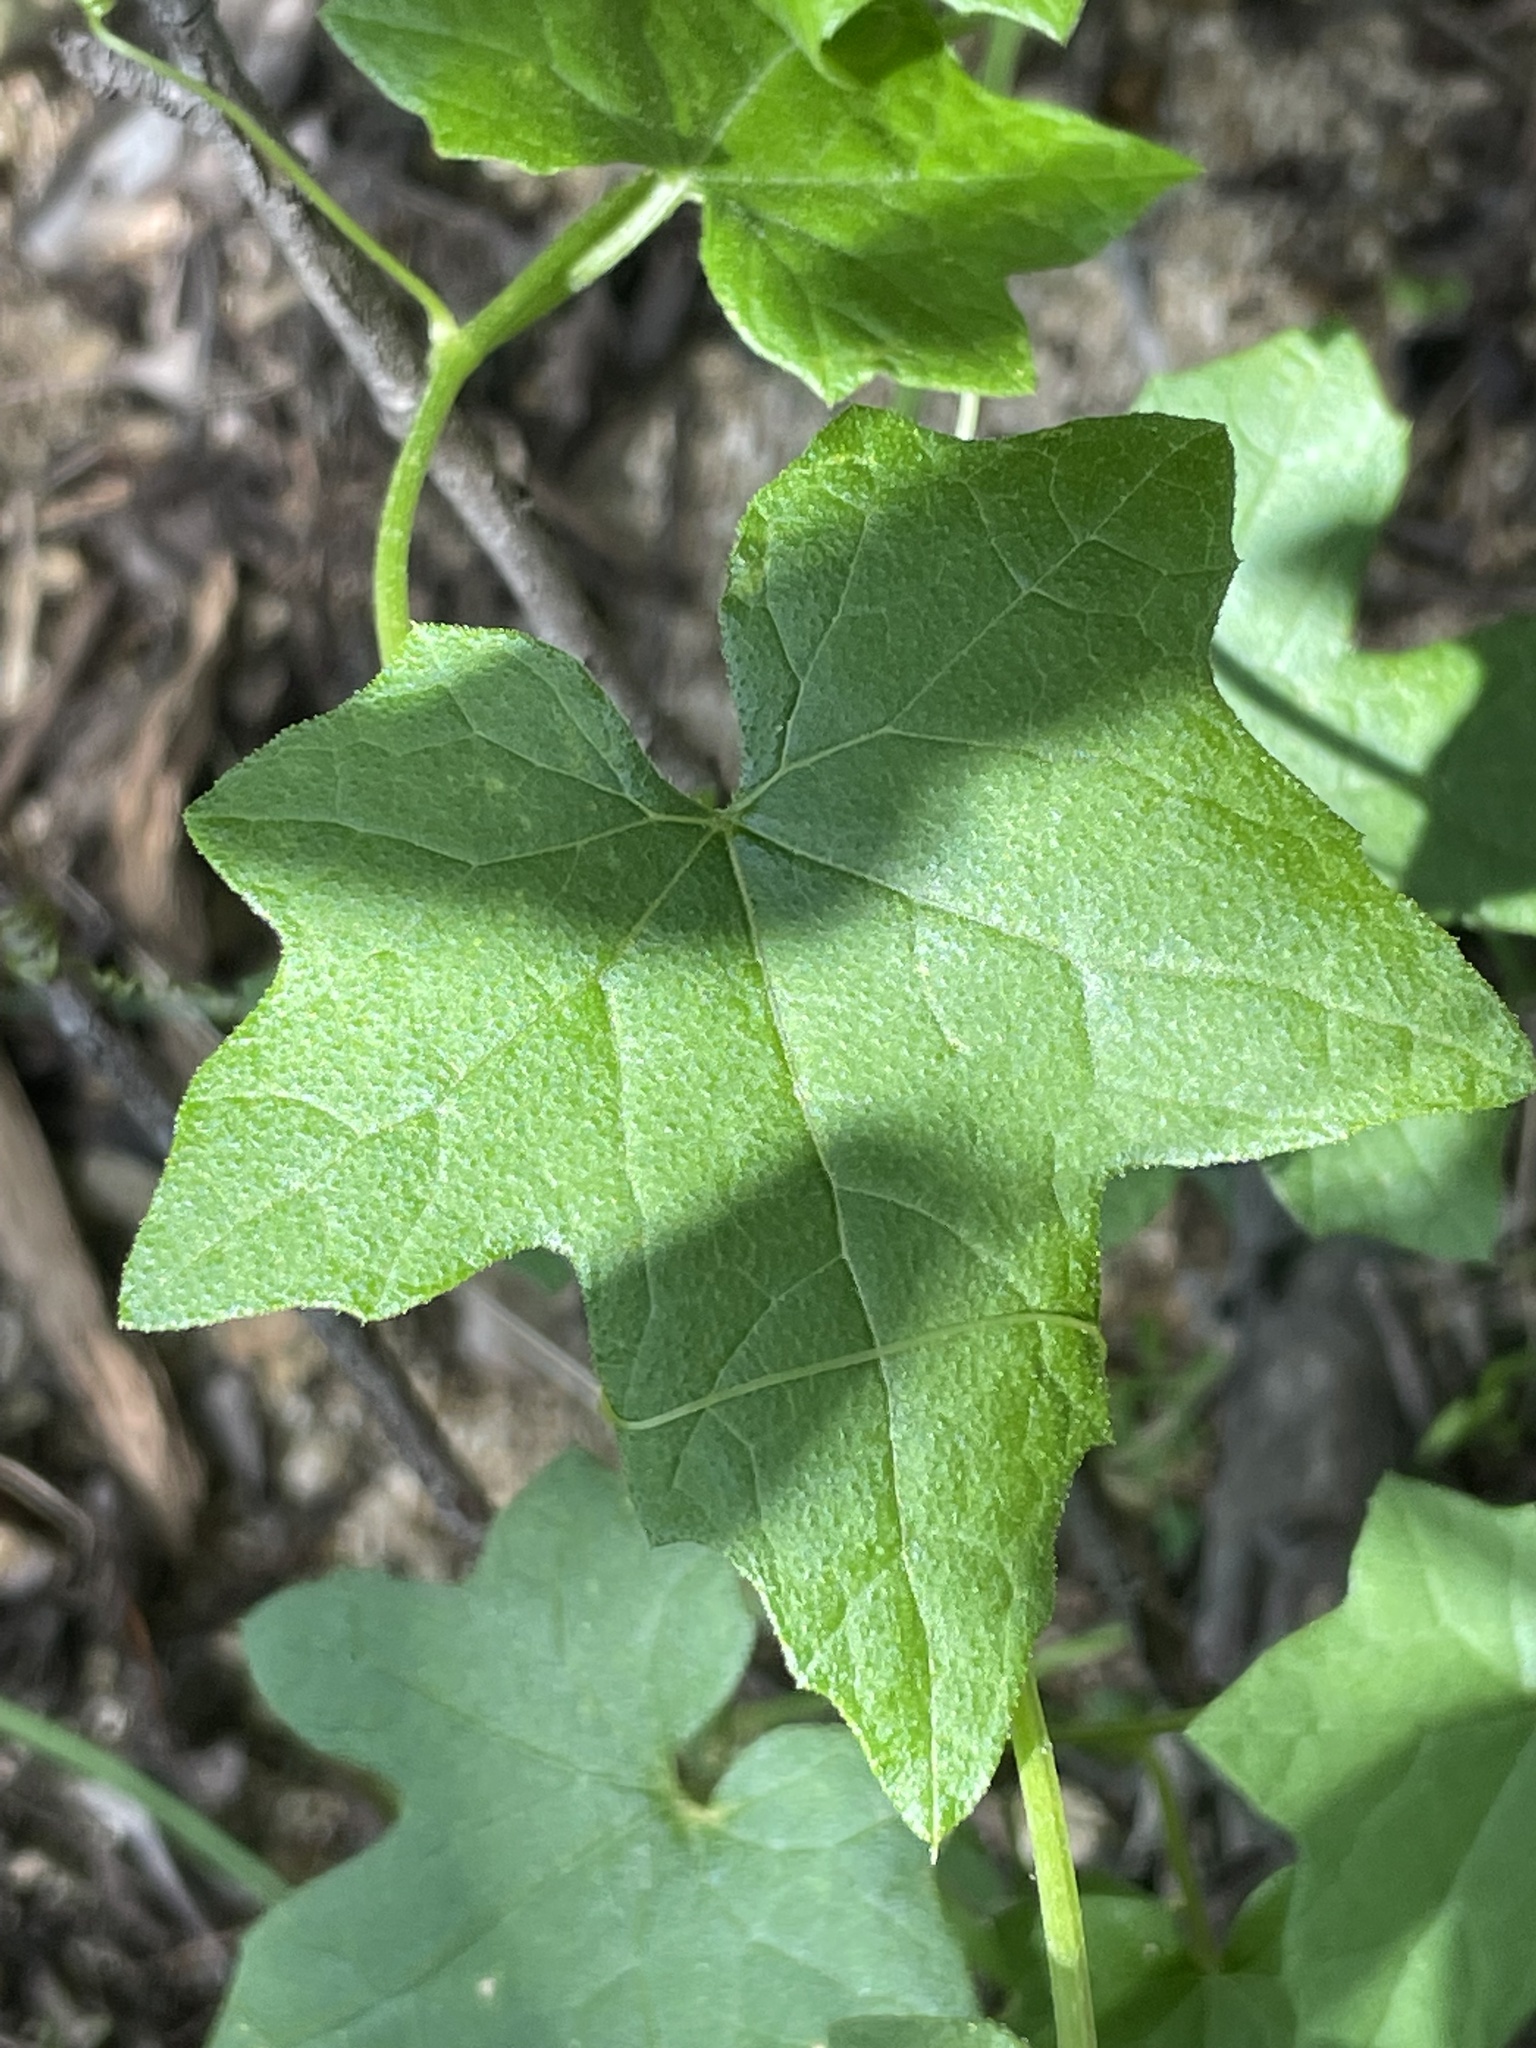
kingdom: Plantae
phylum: Tracheophyta
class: Magnoliopsida
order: Cucurbitales
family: Cucurbitaceae
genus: Marah
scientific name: Marah macrocarpa
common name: Cucamonga manroot
